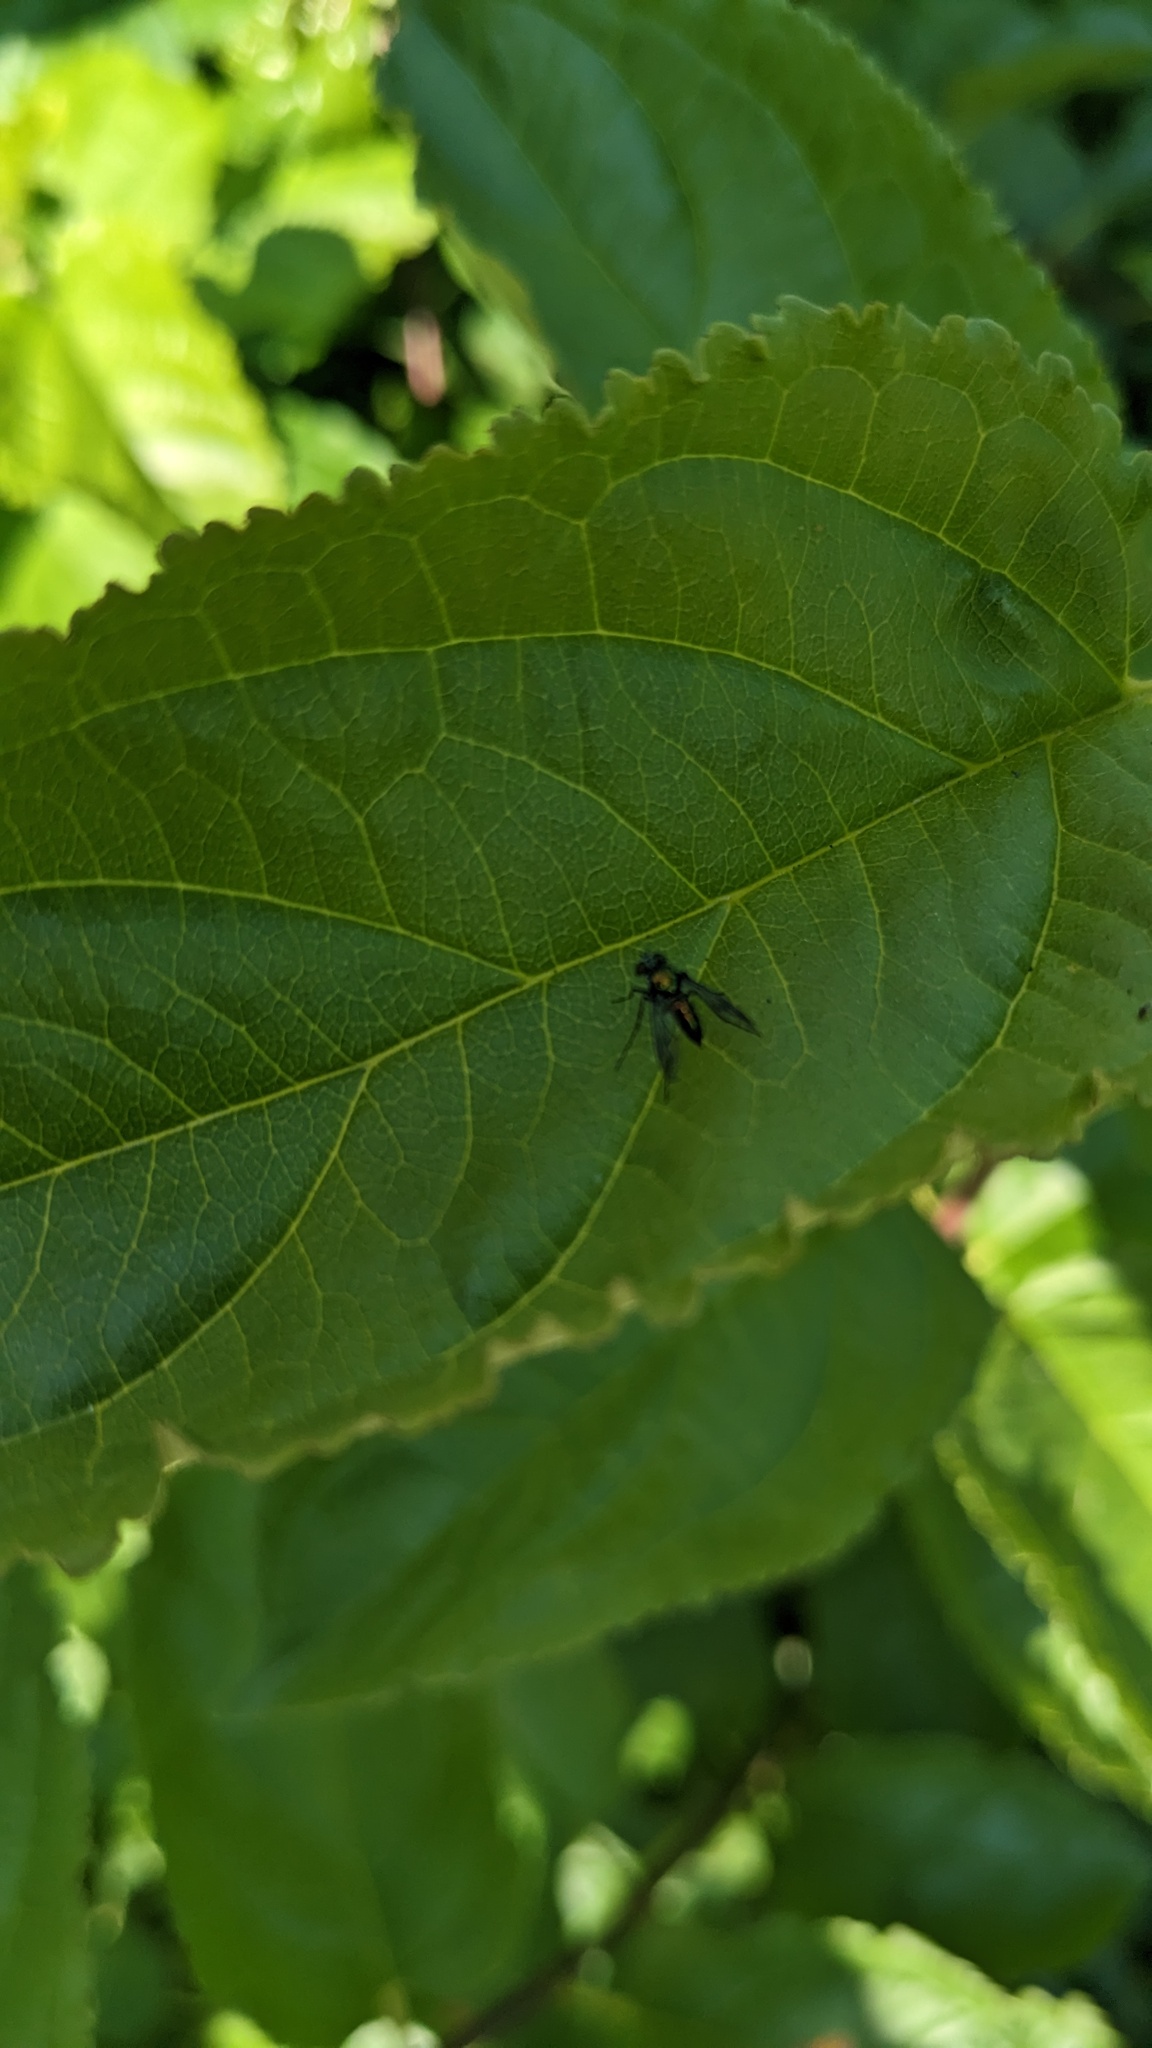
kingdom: Animalia
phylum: Arthropoda
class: Insecta
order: Diptera
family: Dolichopodidae
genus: Condylostylus
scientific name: Condylostylus patibulatus
